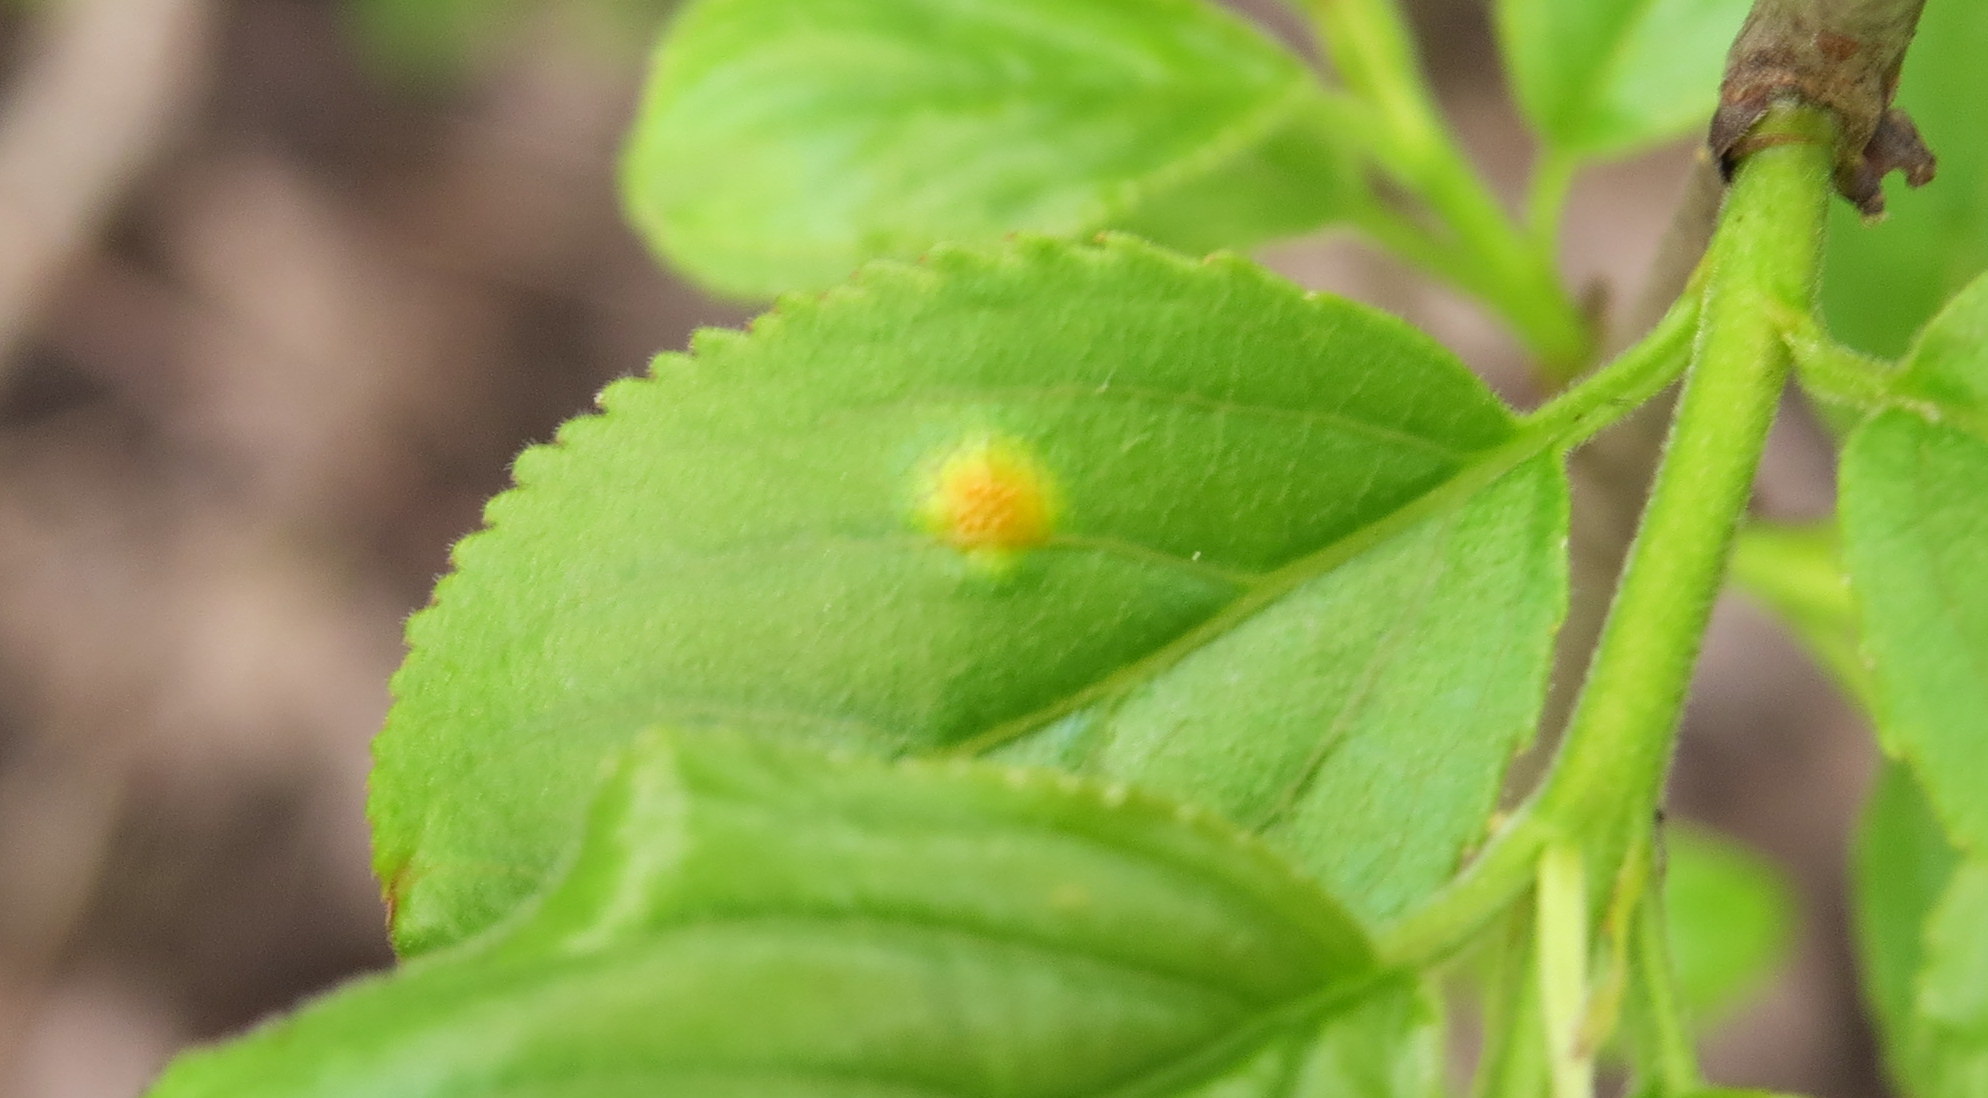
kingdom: Fungi
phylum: Basidiomycota
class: Pucciniomycetes
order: Pucciniales
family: Pucciniaceae
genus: Puccinia
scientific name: Puccinia coronata
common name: Crown rust
